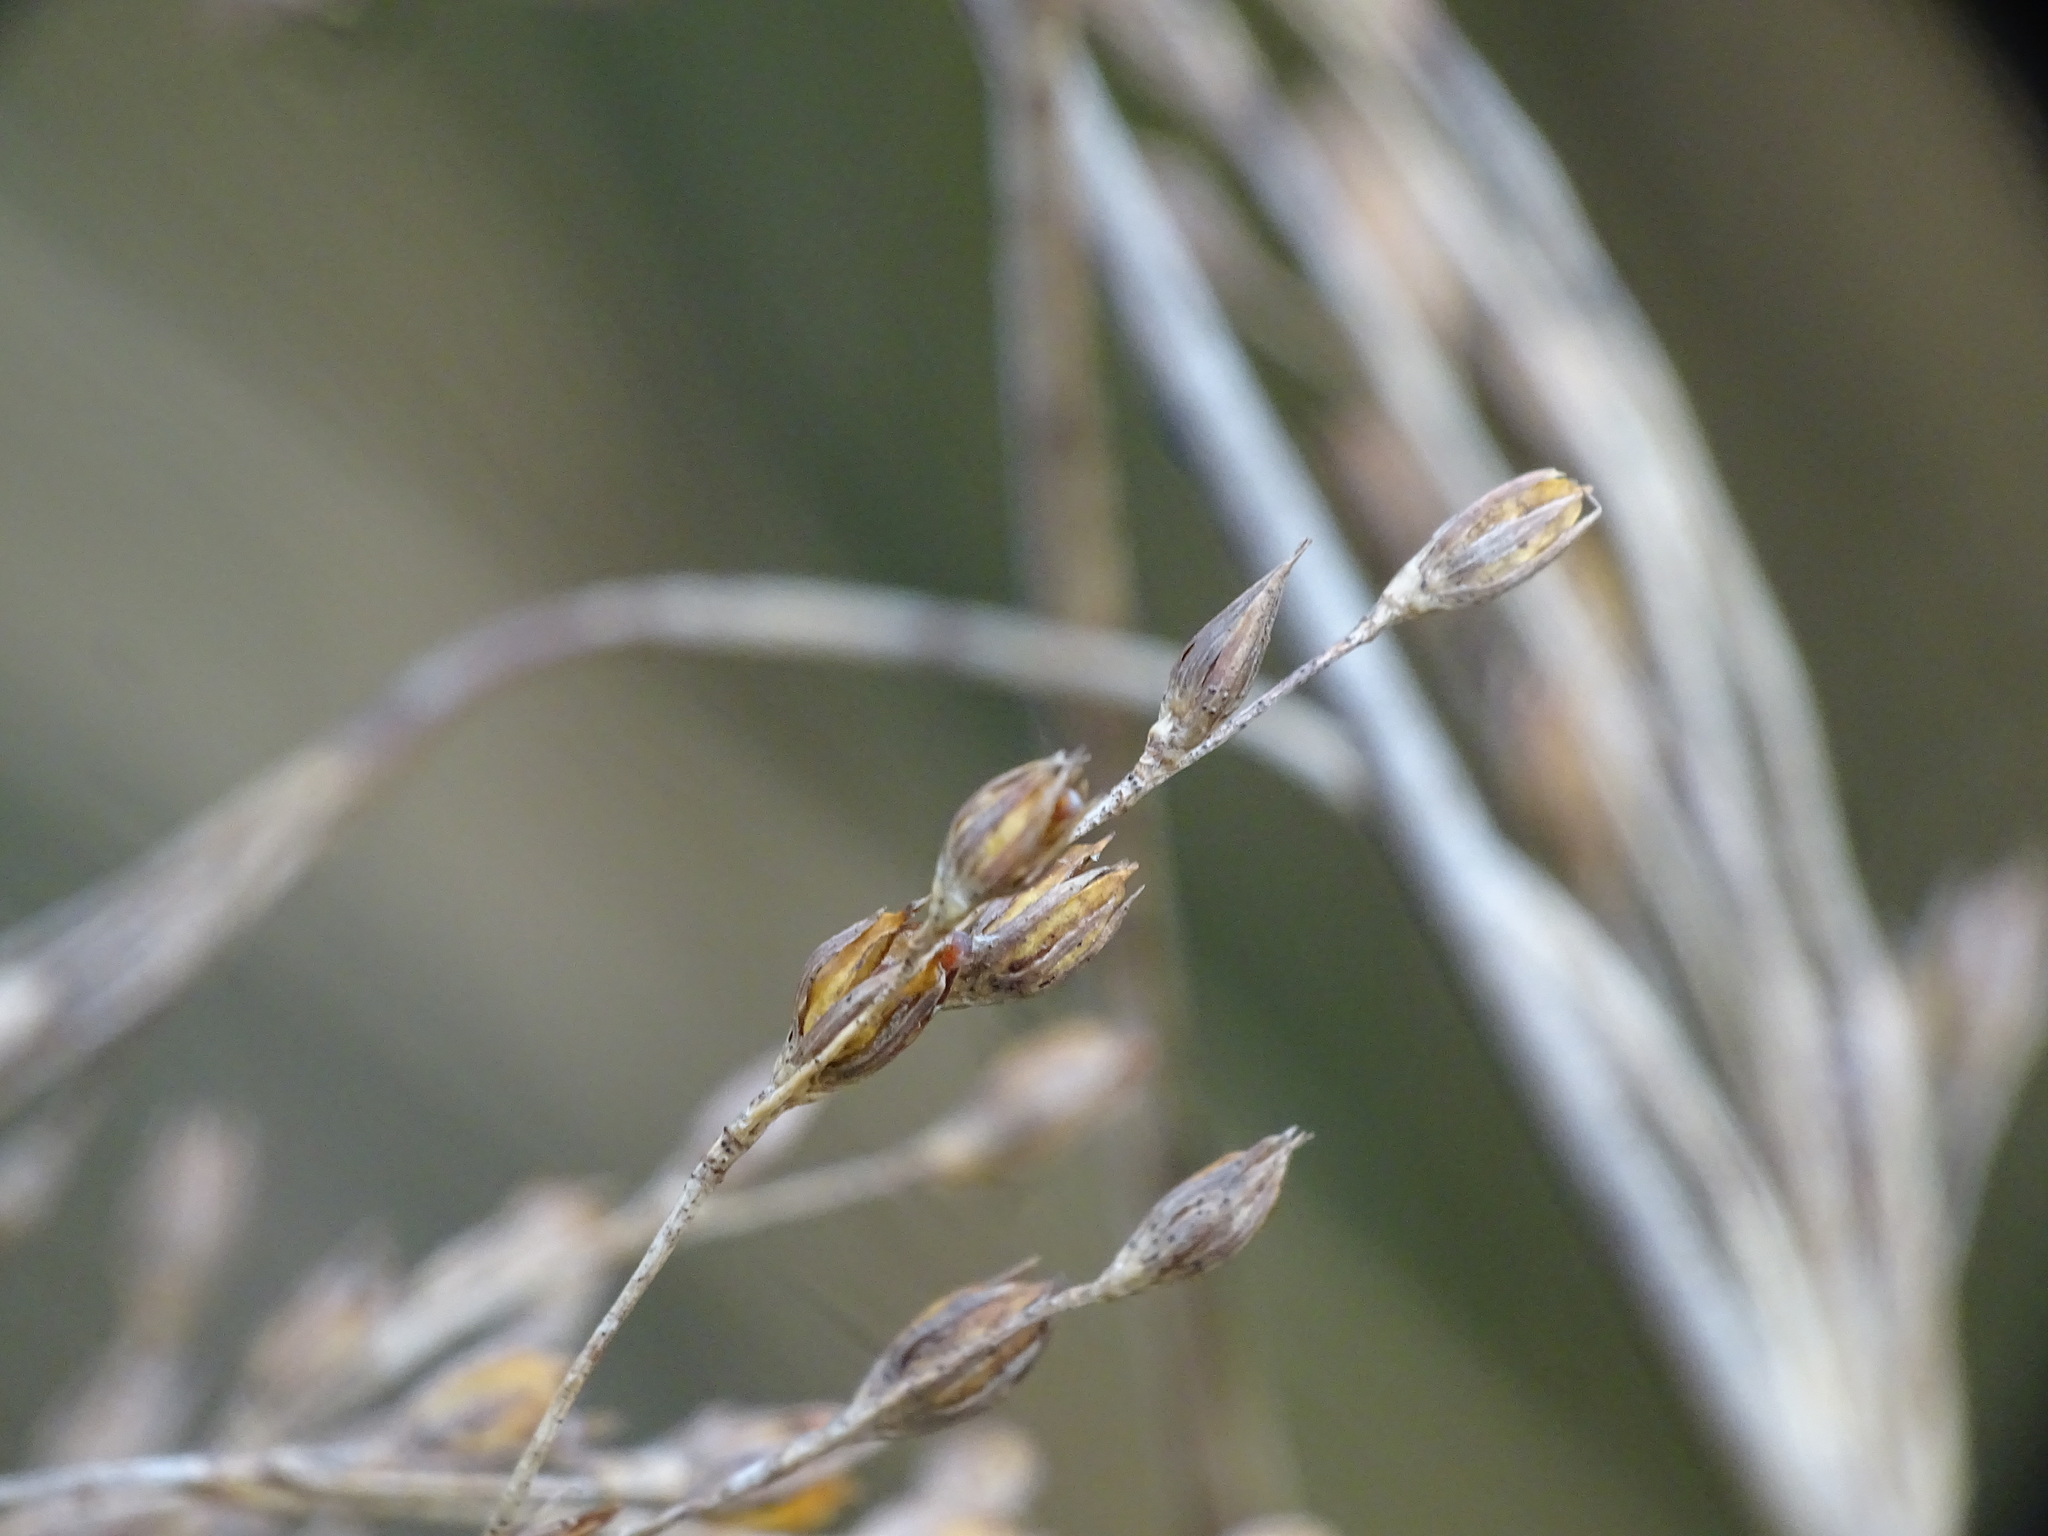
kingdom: Plantae
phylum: Tracheophyta
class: Liliopsida
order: Poales
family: Juncaceae
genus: Juncus
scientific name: Juncus balticus
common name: Baltic rush
